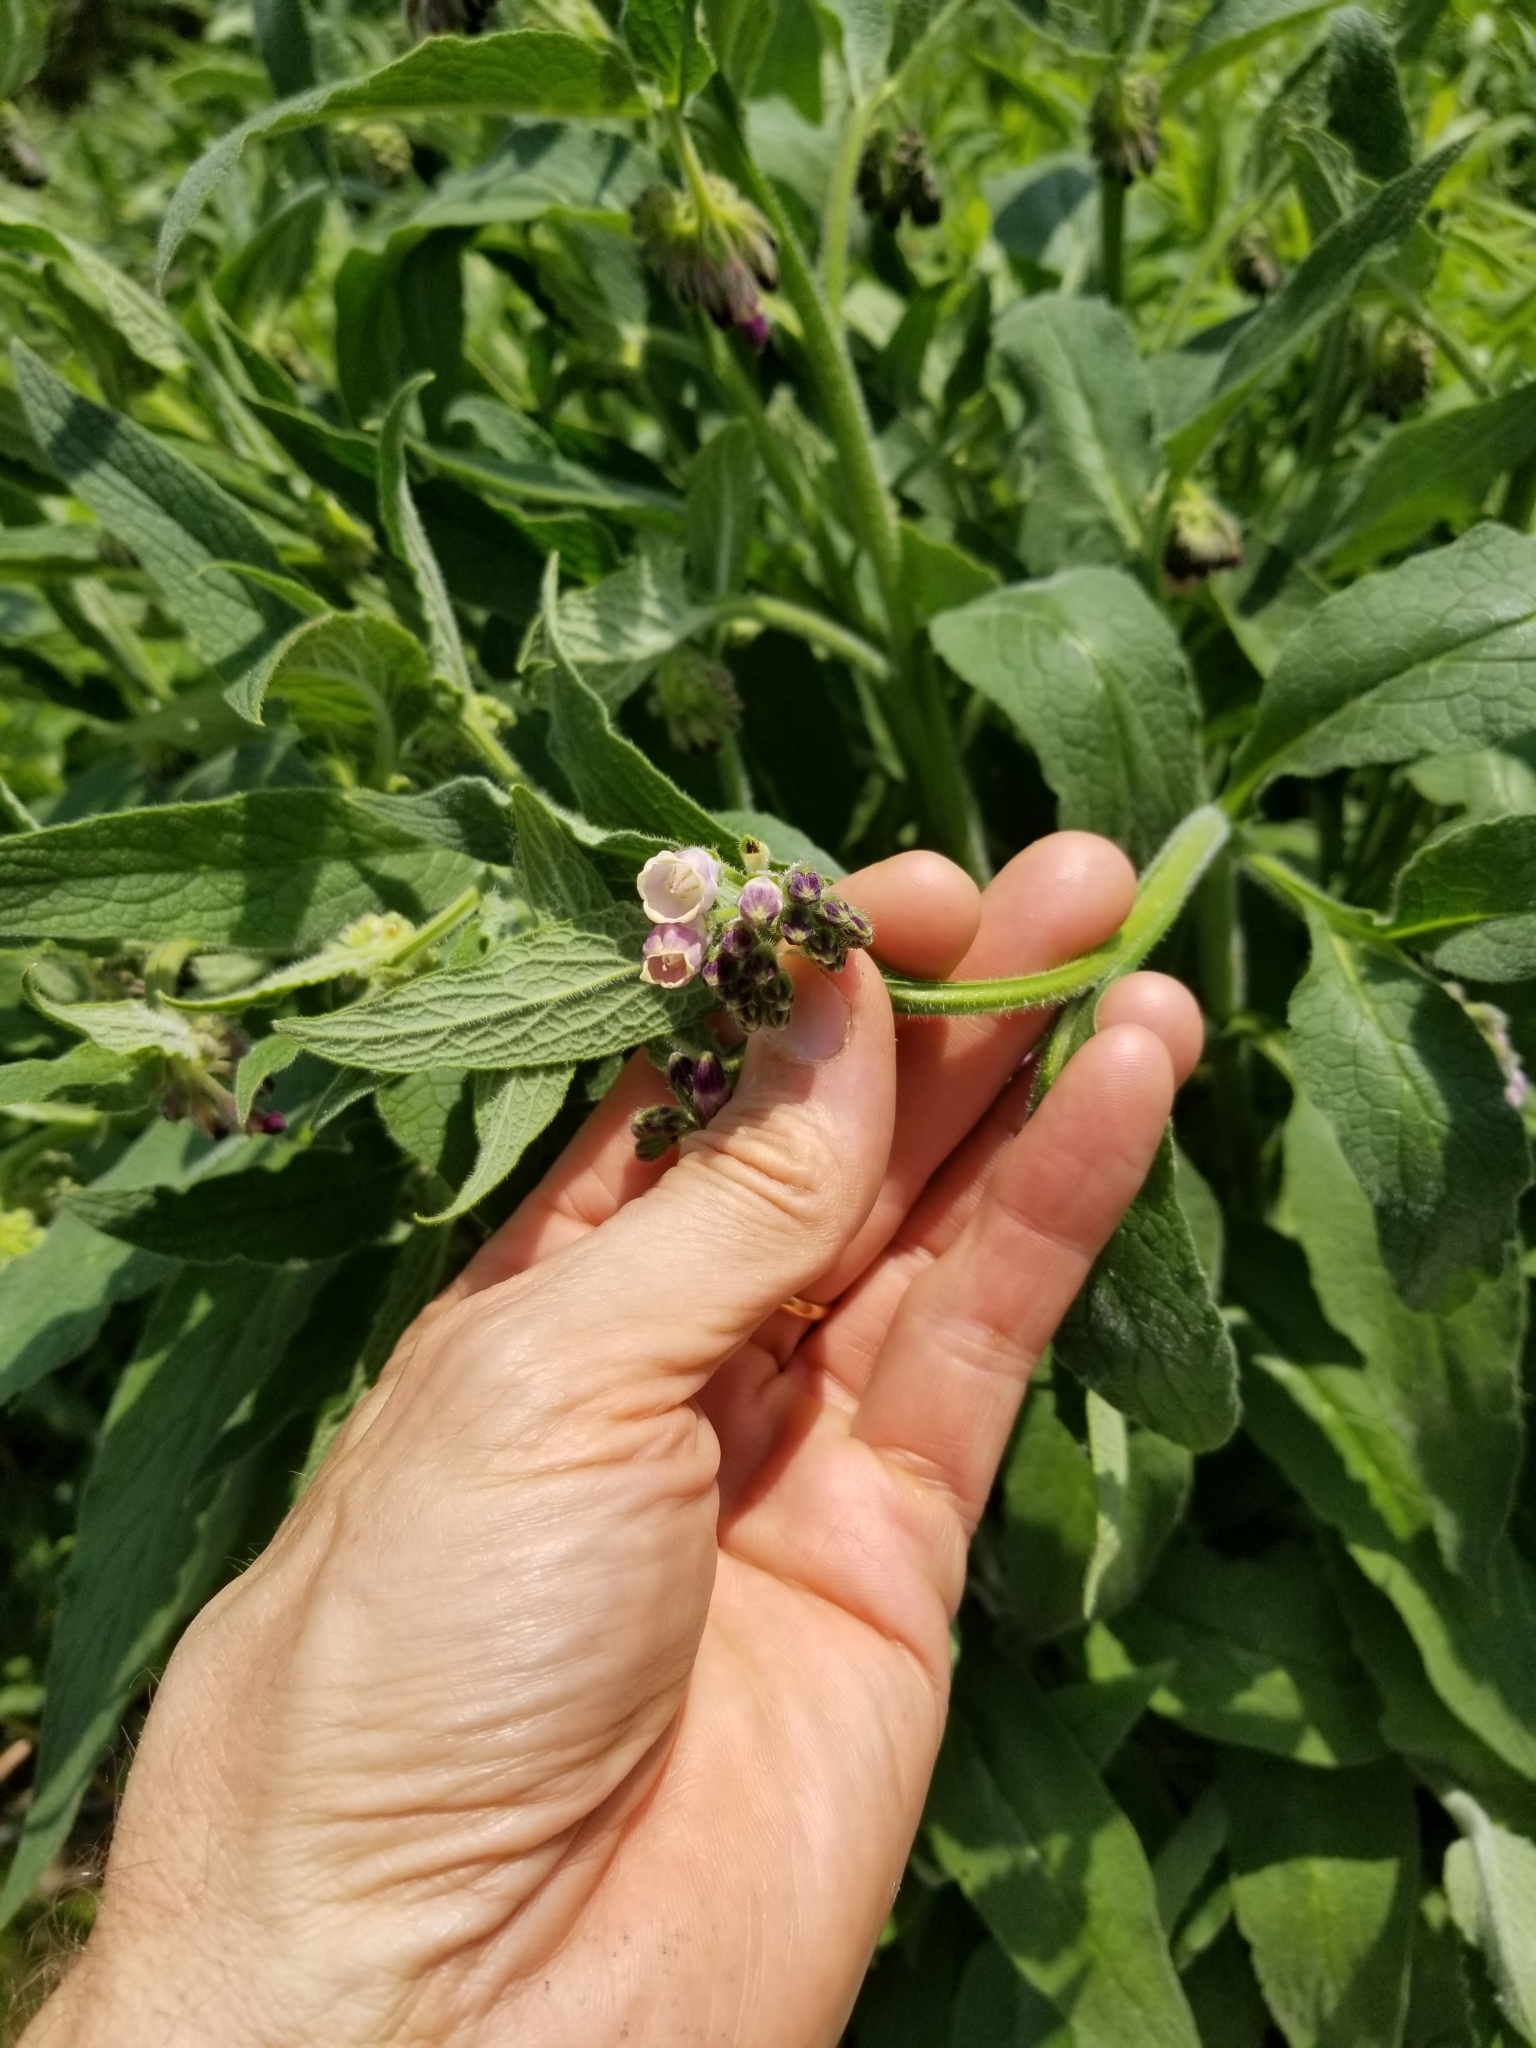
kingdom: Plantae
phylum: Tracheophyta
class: Magnoliopsida
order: Boraginales
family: Boraginaceae
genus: Symphytum
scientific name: Symphytum officinale
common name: Common comfrey
